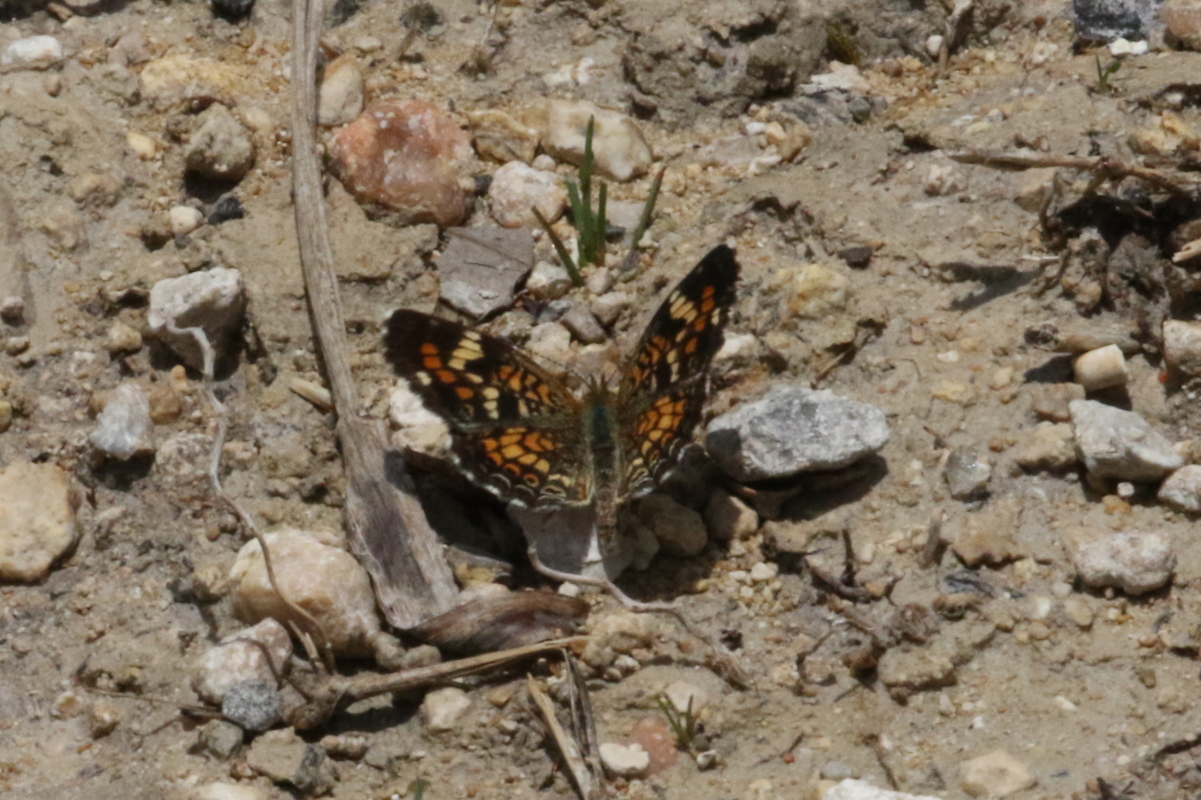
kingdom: Animalia
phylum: Arthropoda
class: Insecta
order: Lepidoptera
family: Nymphalidae
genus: Phyciodes
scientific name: Phyciodes phaon
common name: Phaon crescent
